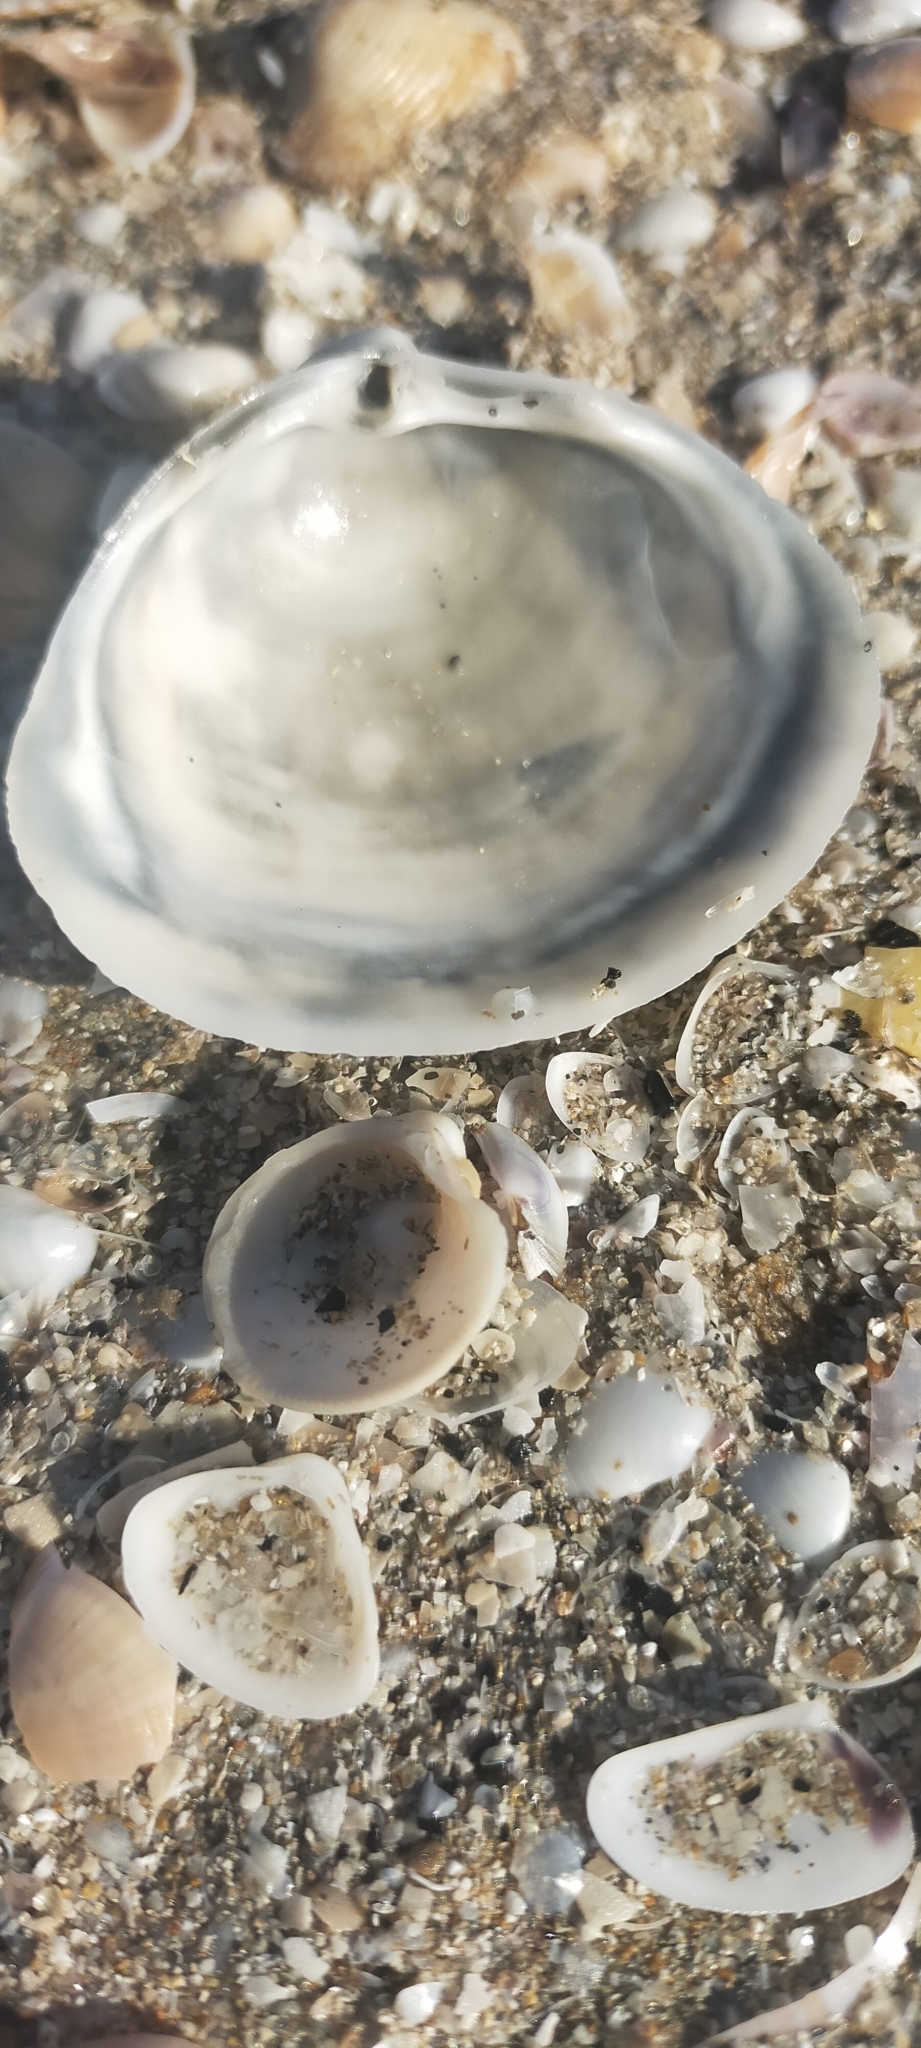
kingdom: Animalia
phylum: Mollusca
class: Bivalvia
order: Venerida
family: Mactridae
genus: Mactra
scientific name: Mactra stultorum
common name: Rayed trough shell
